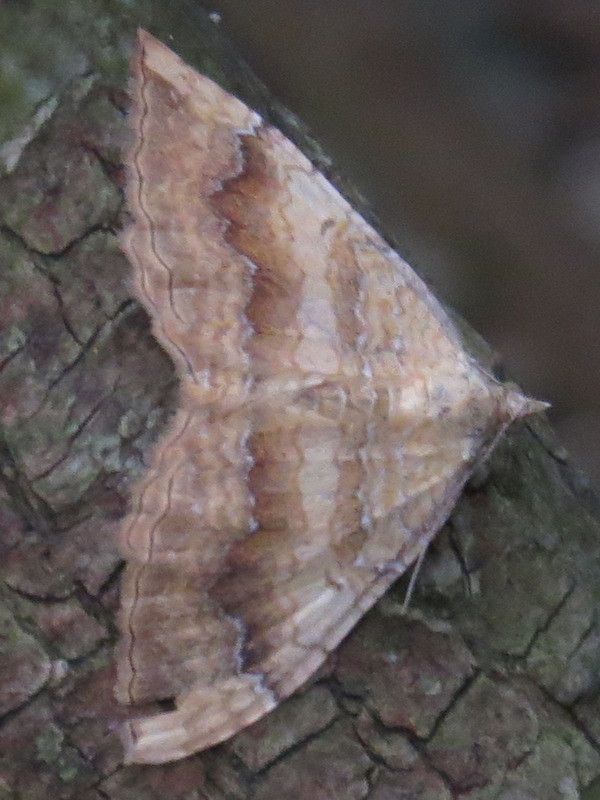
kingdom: Animalia
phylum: Arthropoda
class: Insecta
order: Lepidoptera
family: Geometridae
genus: Camptogramma
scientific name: Camptogramma bilineata
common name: Yellow shell
